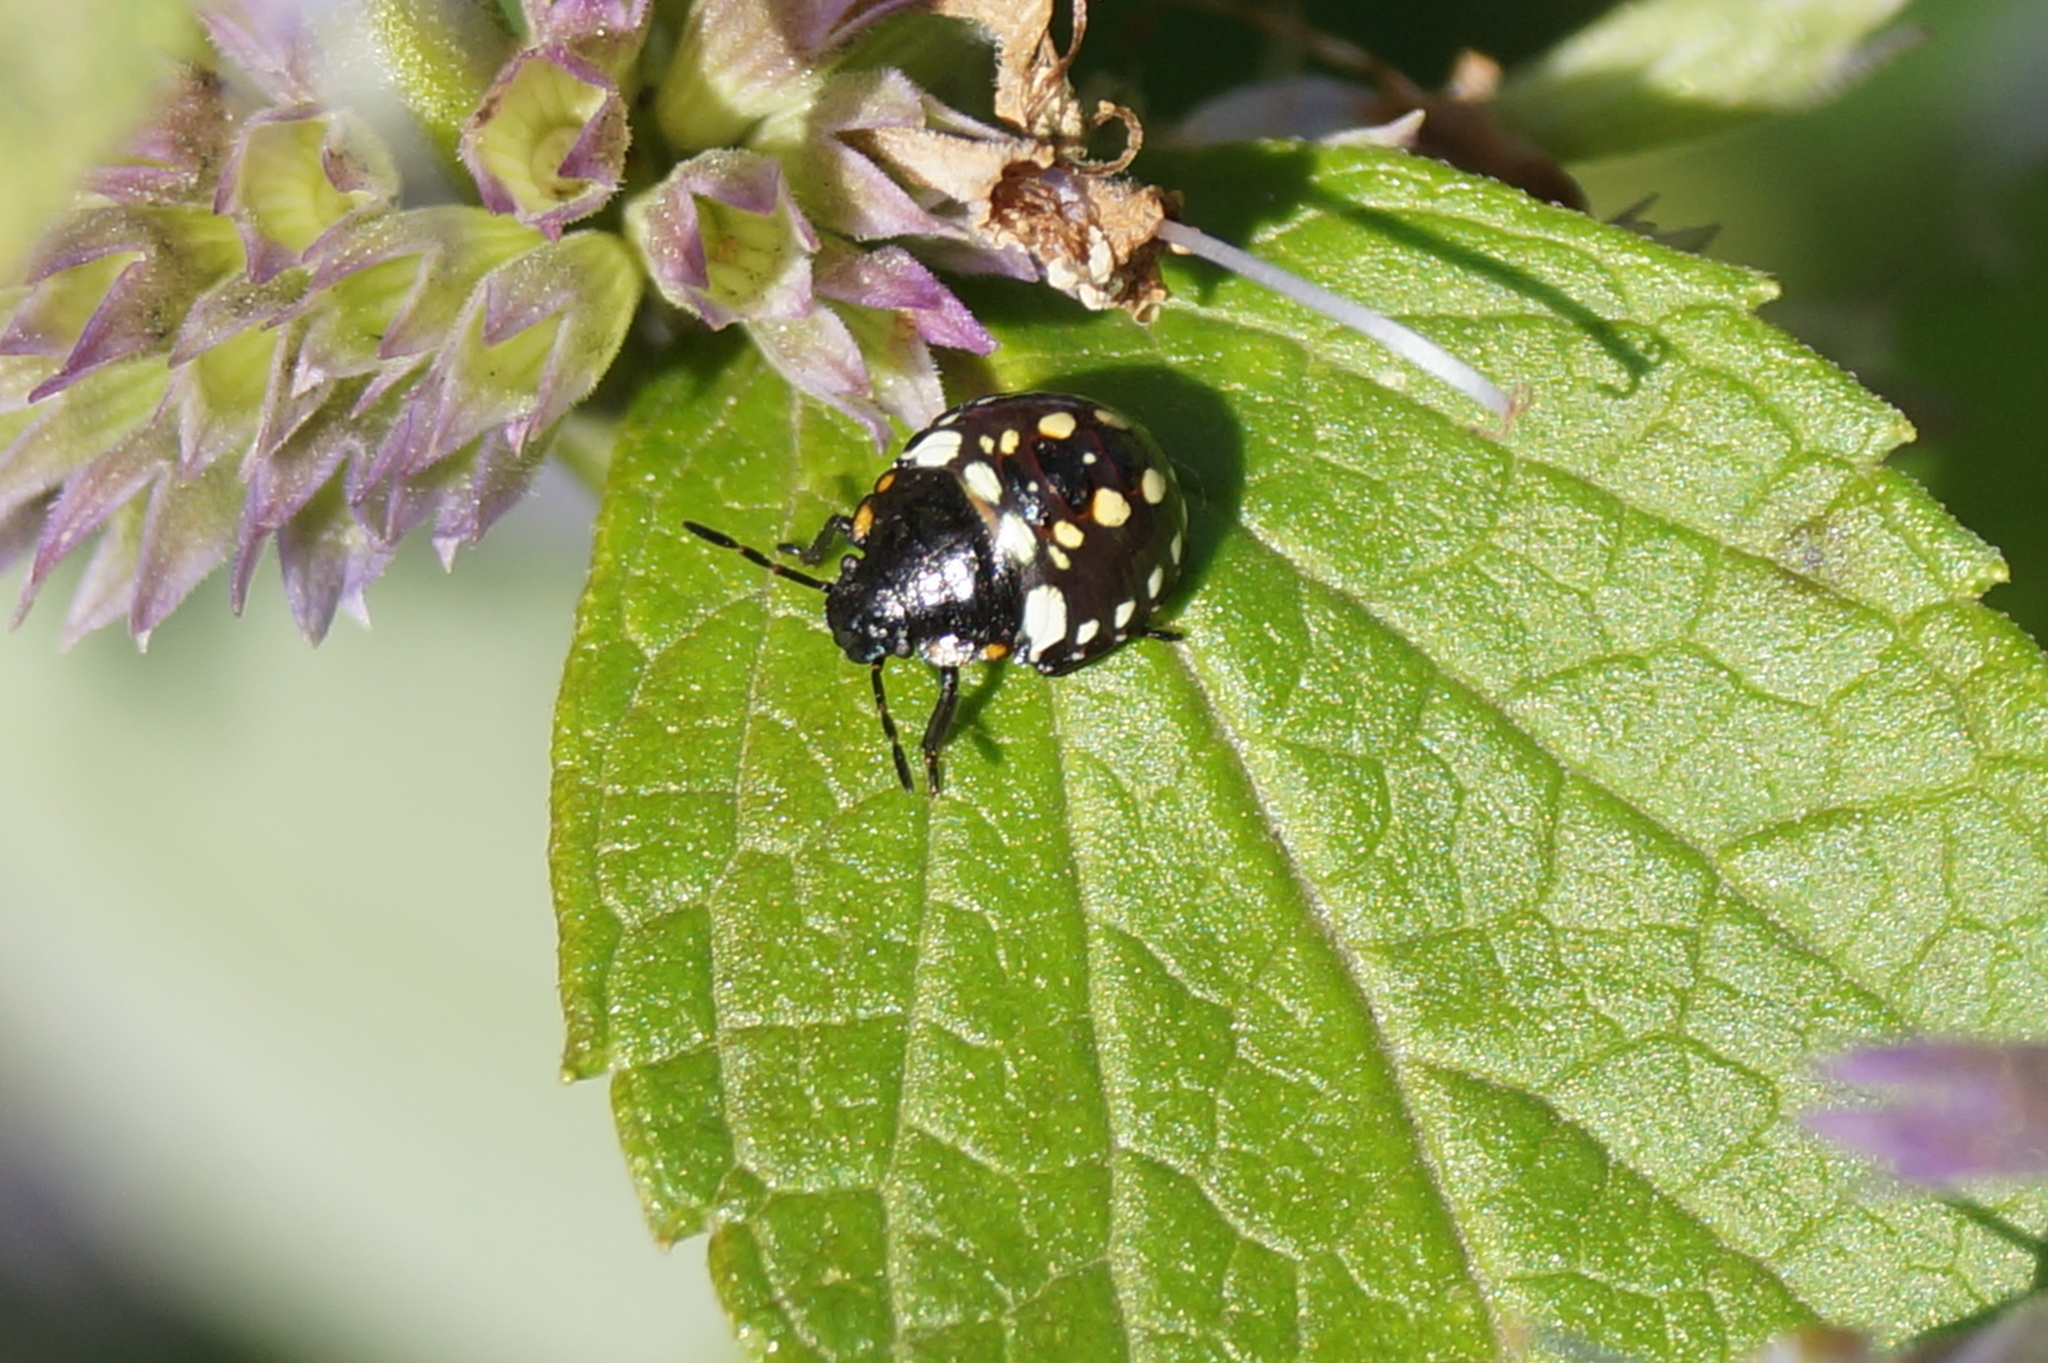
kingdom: Animalia
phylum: Arthropoda
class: Insecta
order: Hemiptera
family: Pentatomidae
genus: Nezara
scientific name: Nezara viridula
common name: Southern green stink bug
